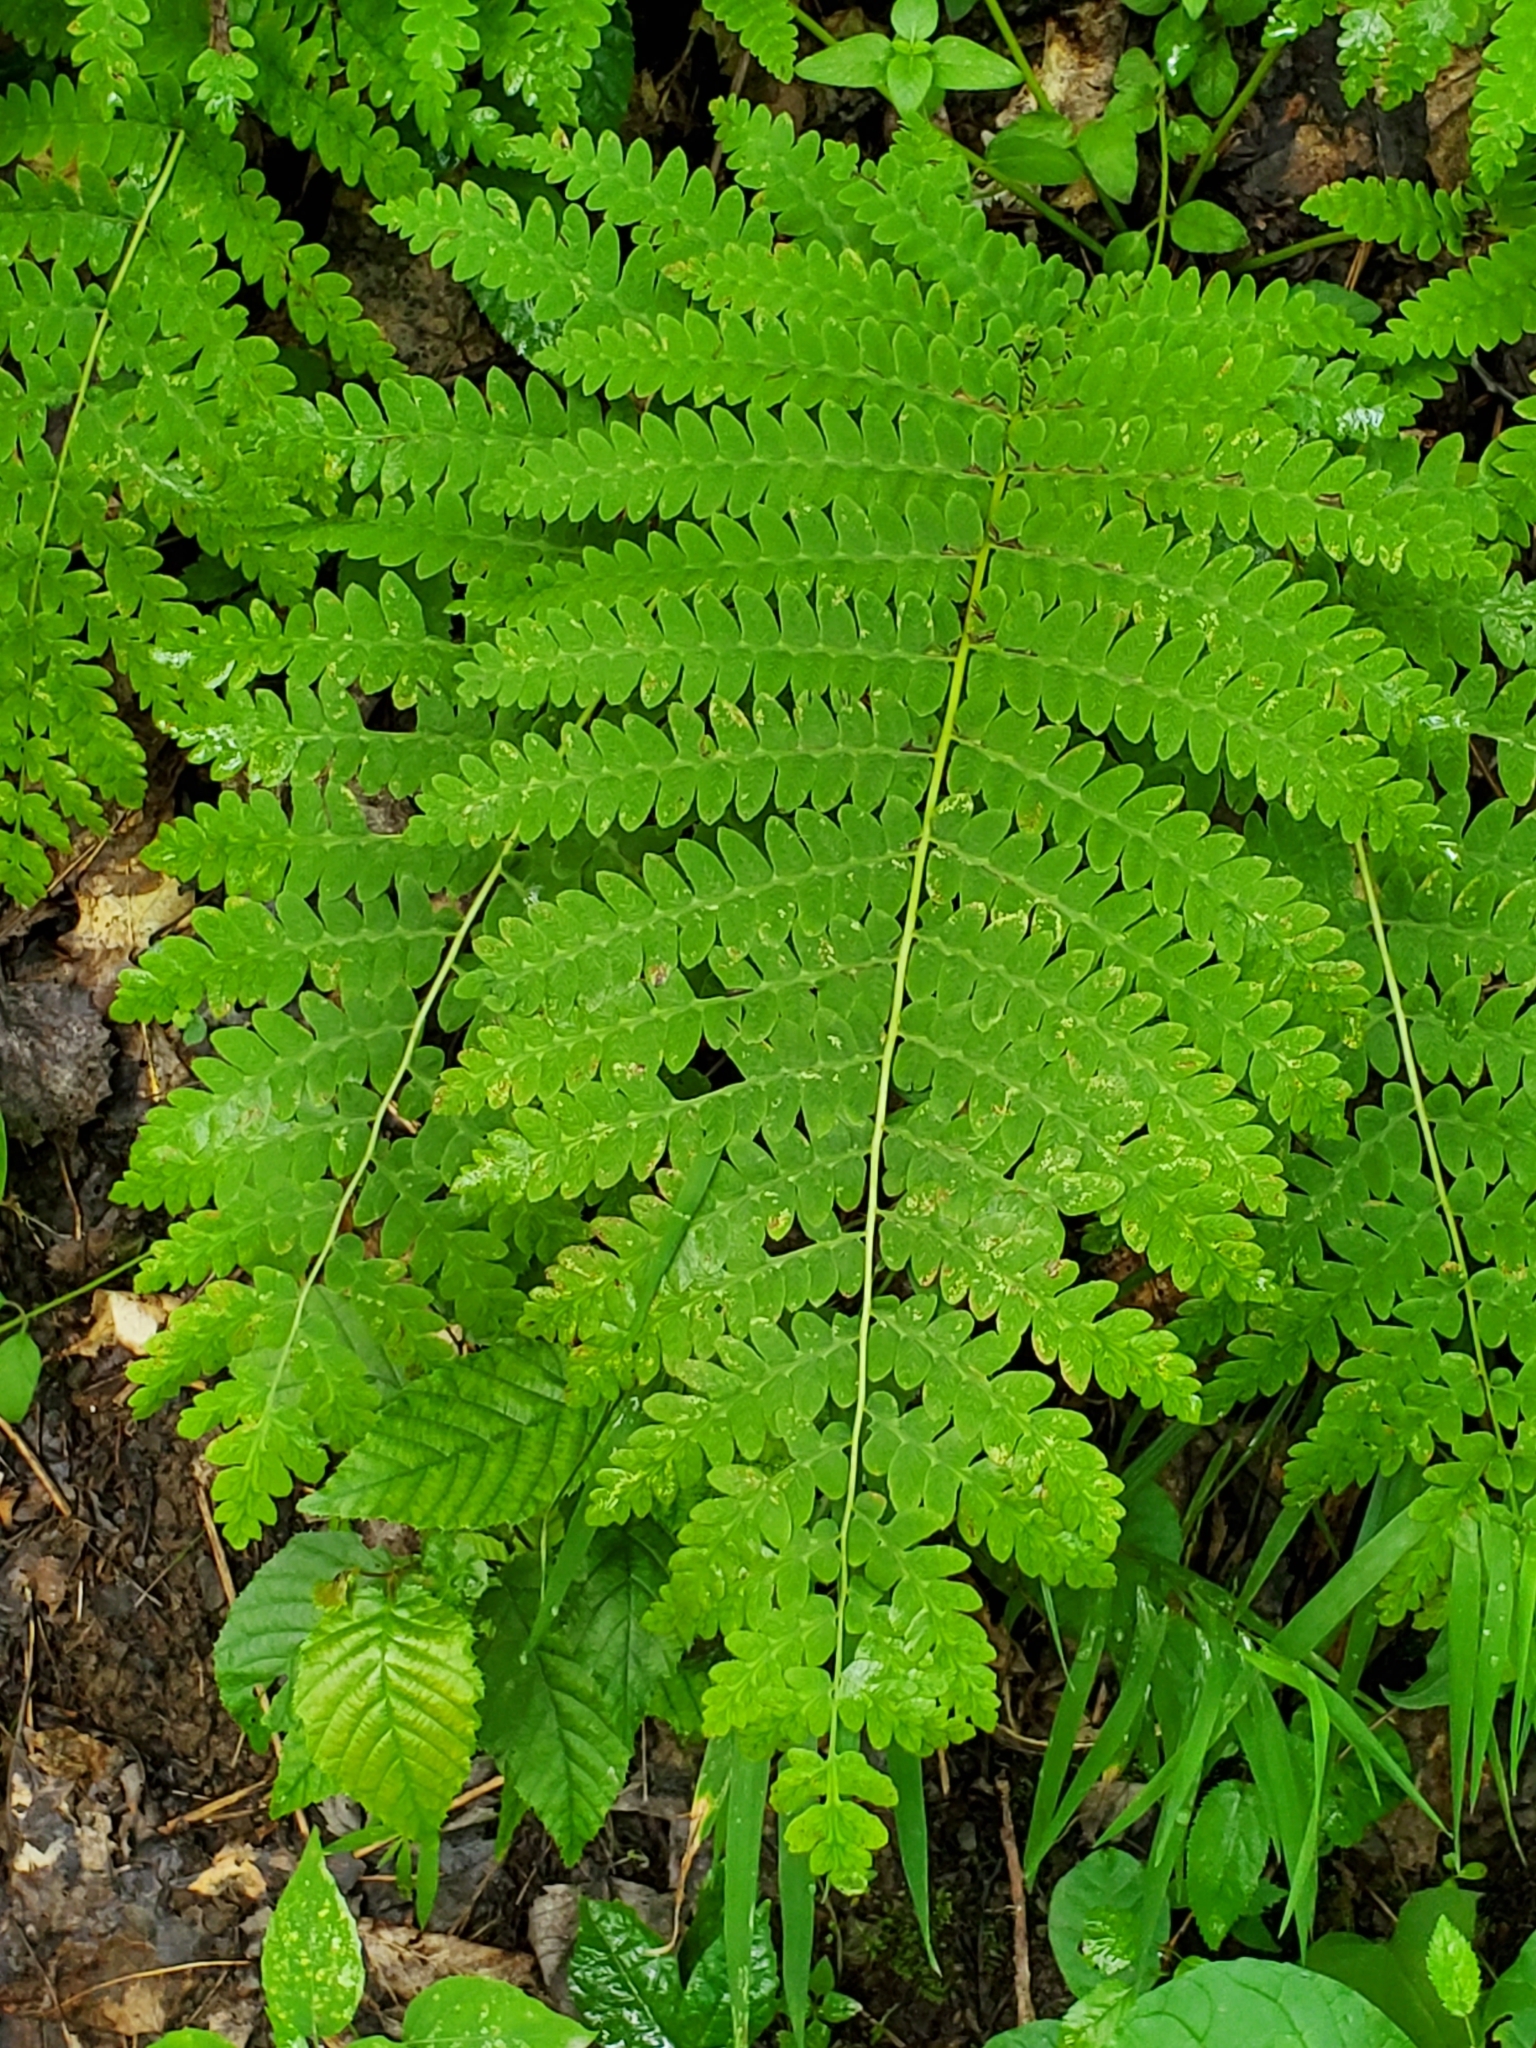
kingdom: Plantae
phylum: Tracheophyta
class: Polypodiopsida
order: Osmundales
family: Osmundaceae
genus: Claytosmunda
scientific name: Claytosmunda claytoniana
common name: Clayton's fern
